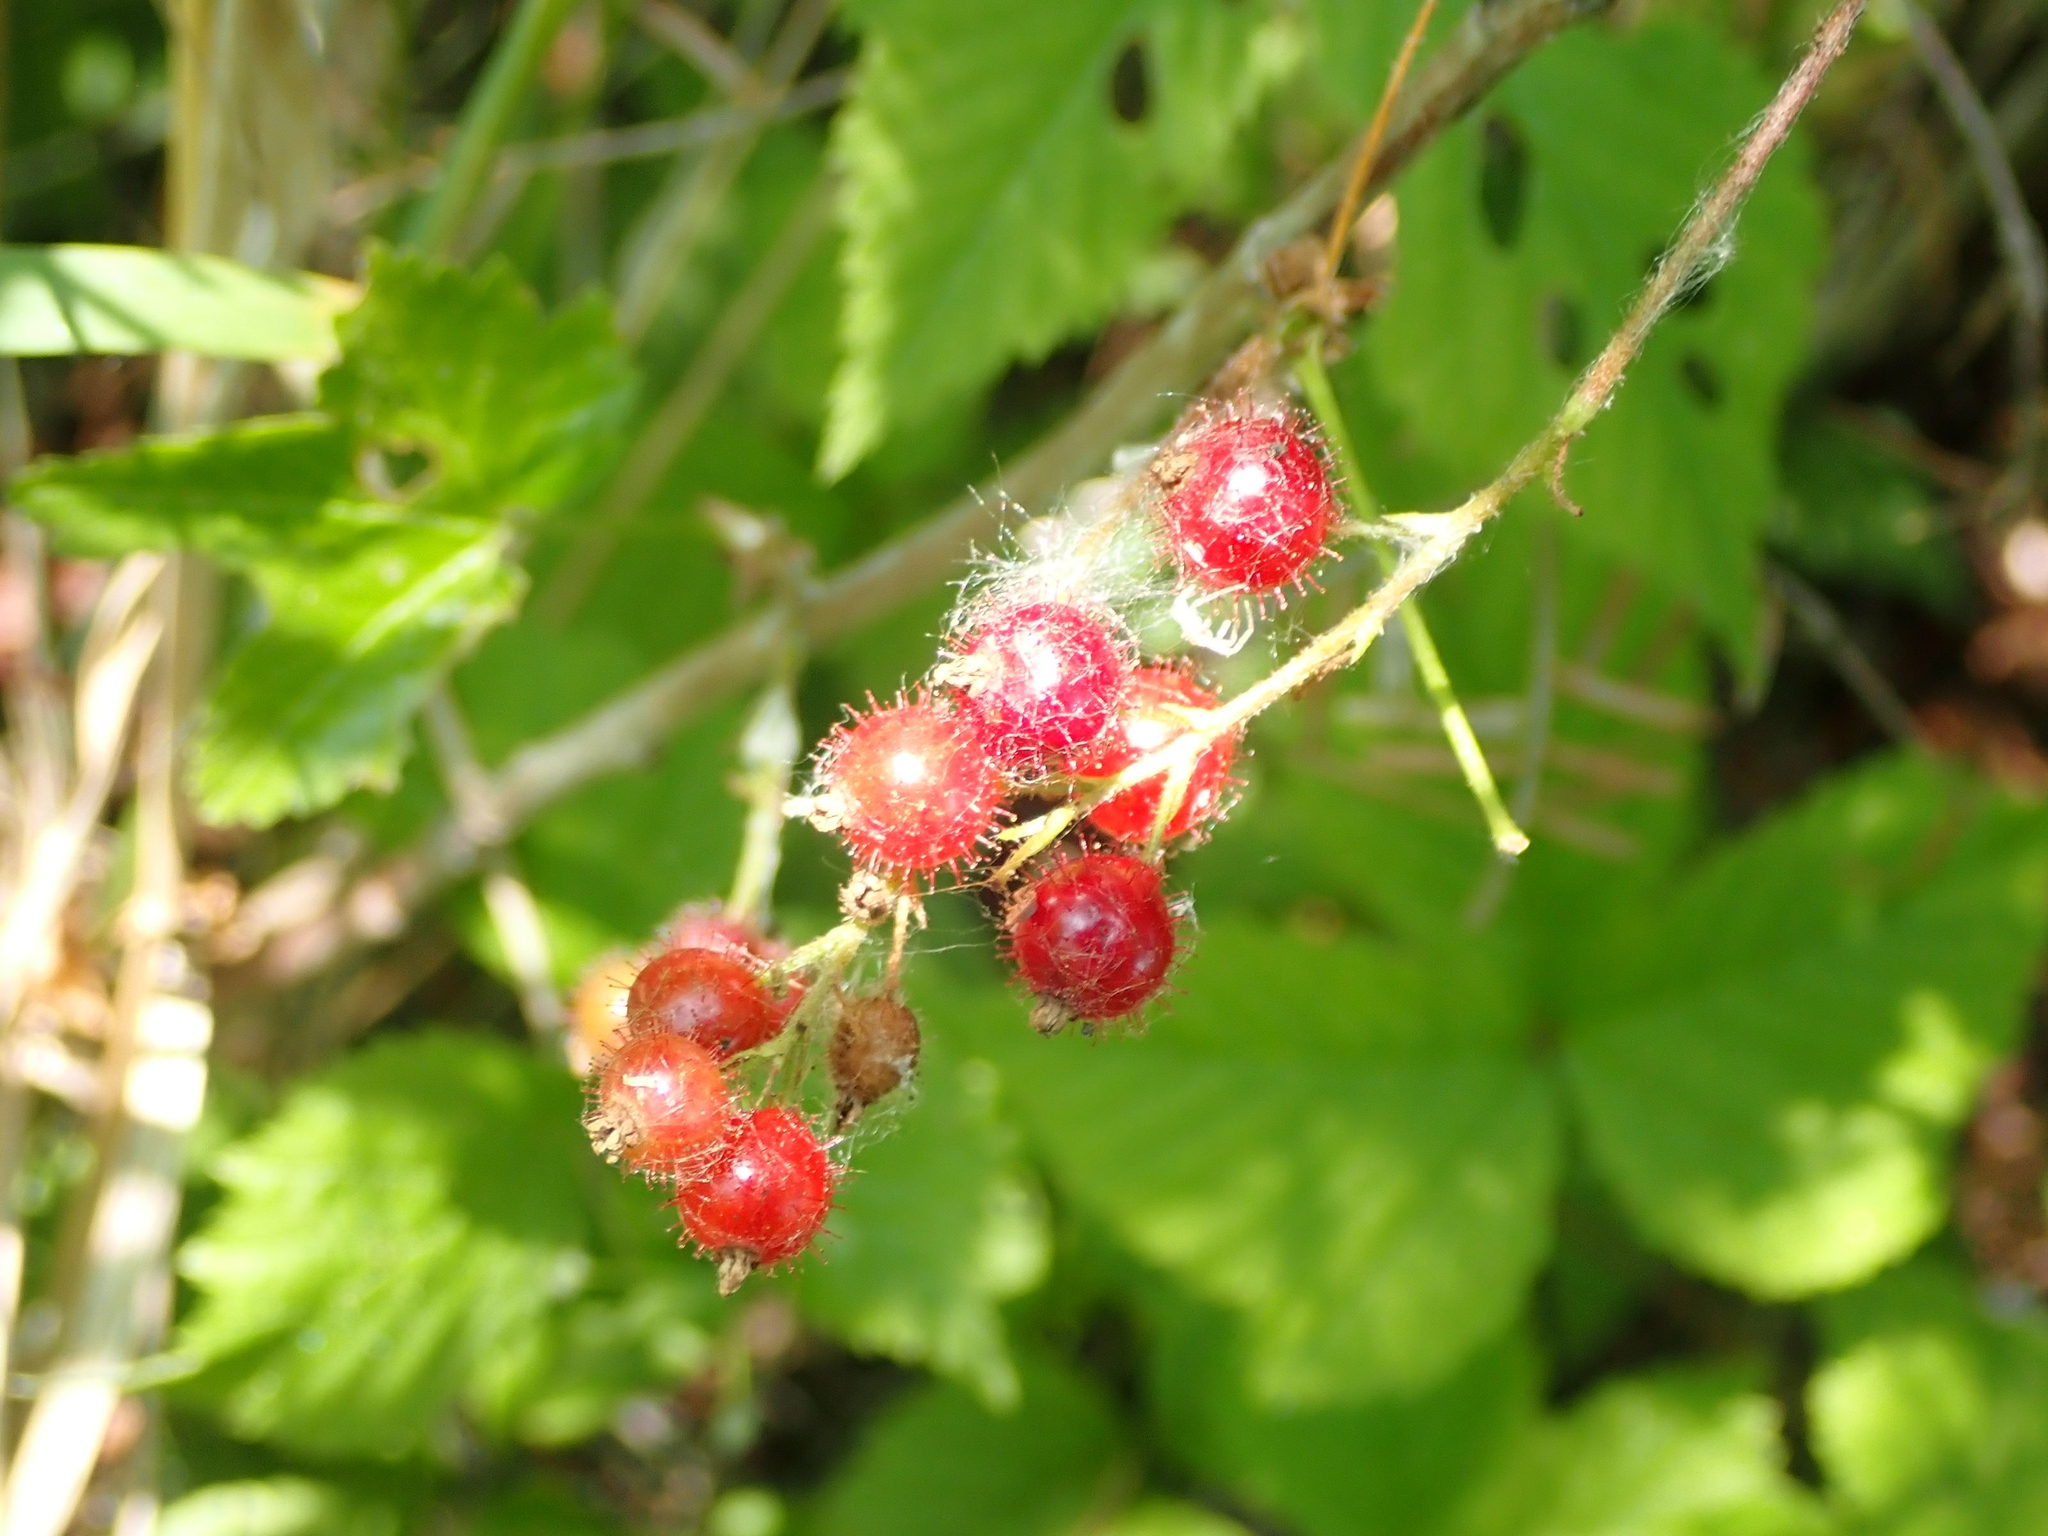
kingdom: Plantae
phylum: Tracheophyta
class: Magnoliopsida
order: Saxifragales
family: Grossulariaceae
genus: Ribes
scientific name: Ribes glandulosum
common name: Skunk currant
